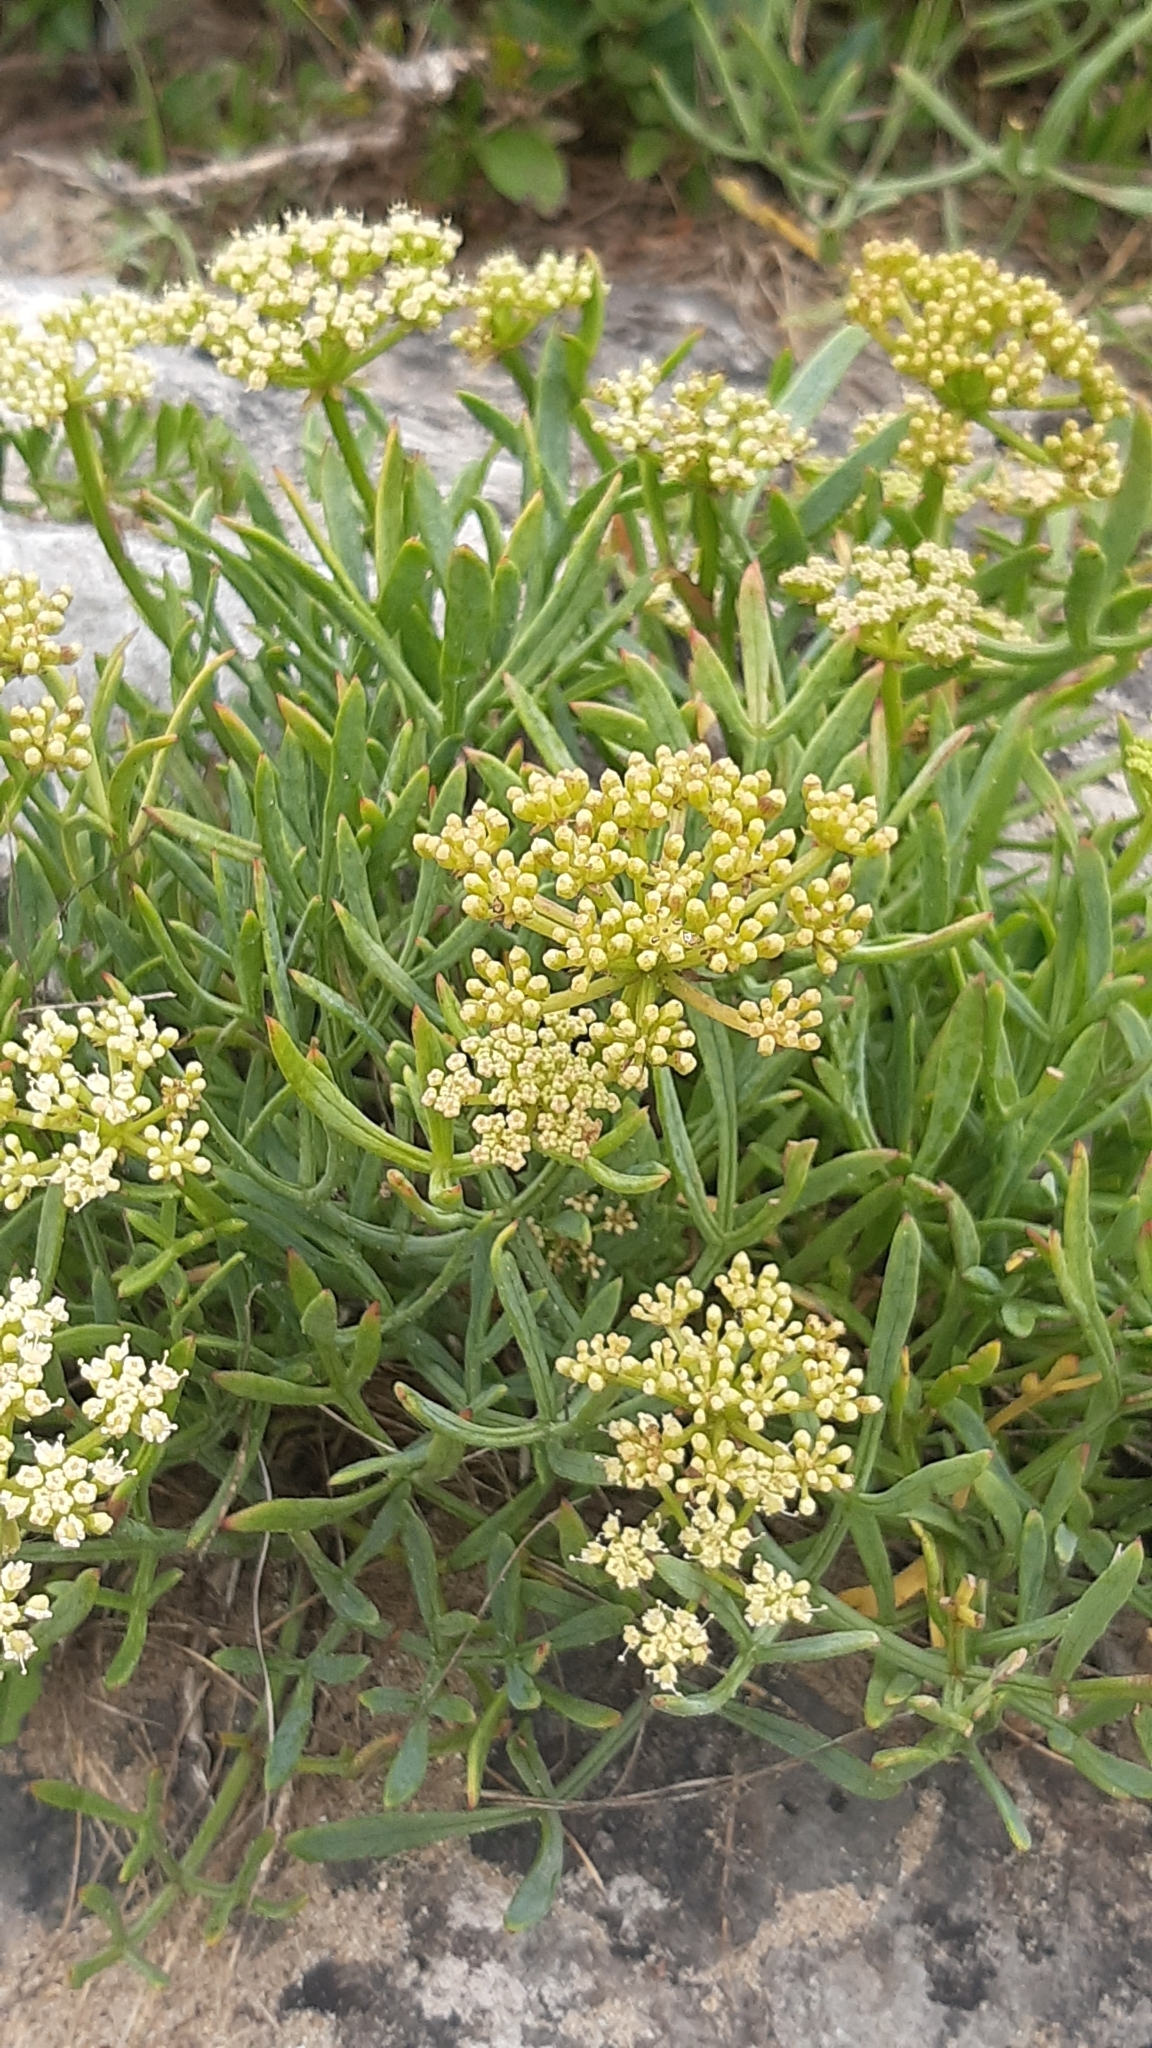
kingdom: Plantae
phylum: Tracheophyta
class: Magnoliopsida
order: Apiales
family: Apiaceae
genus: Crithmum
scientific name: Crithmum maritimum
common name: Rock samphire
